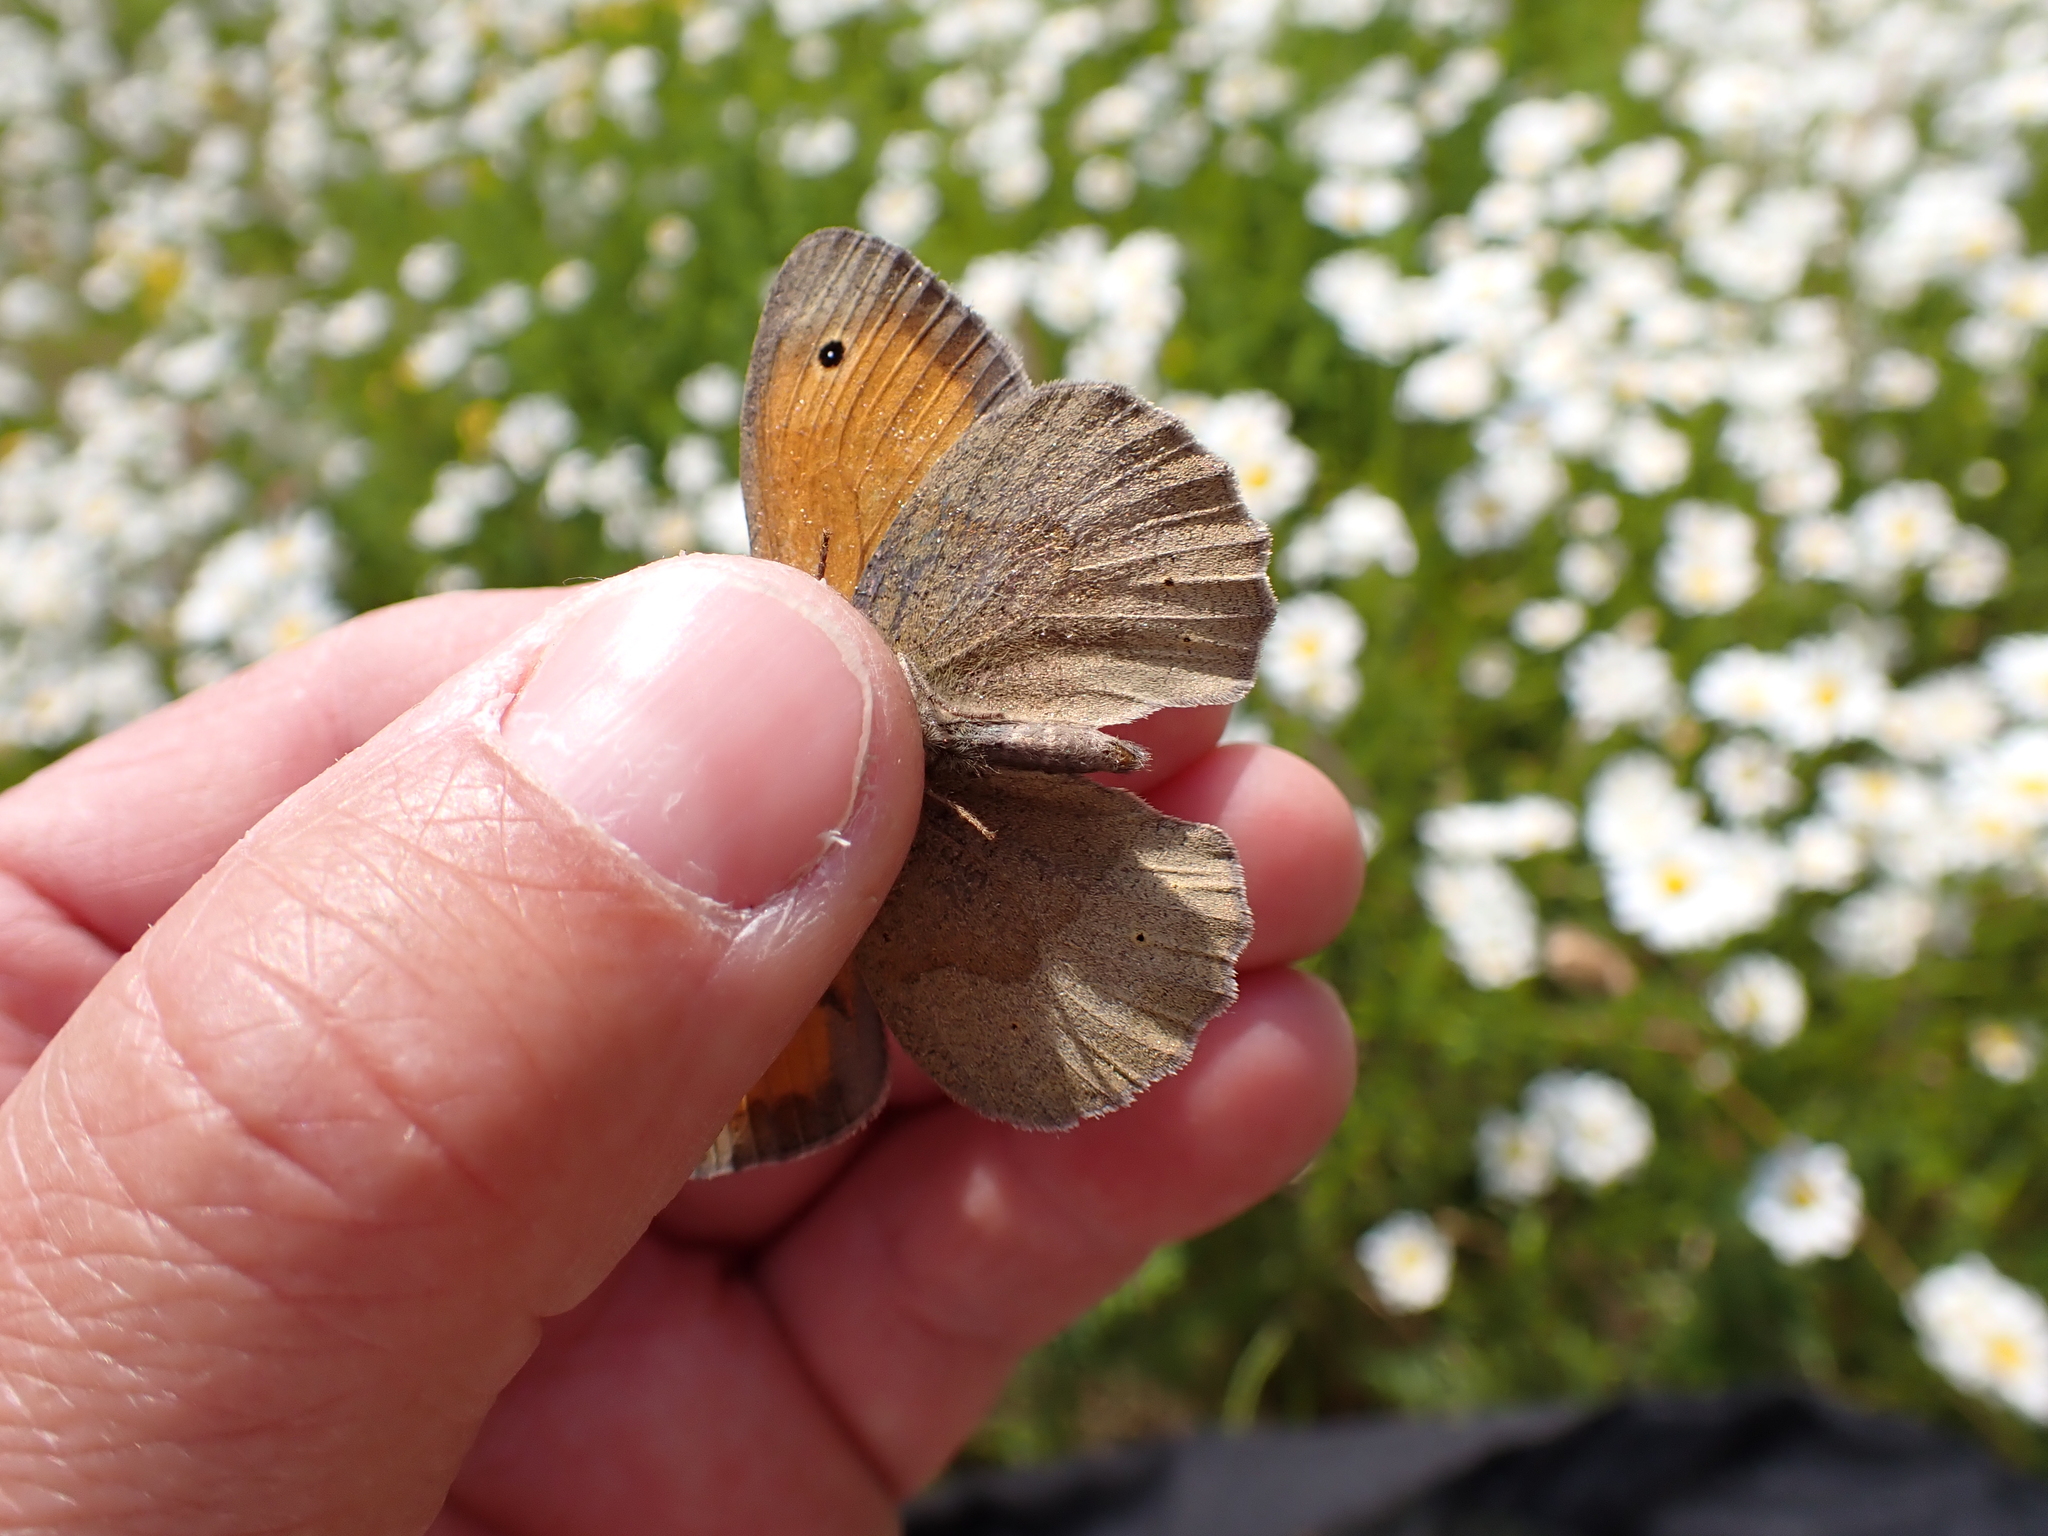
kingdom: Animalia
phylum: Arthropoda
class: Insecta
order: Lepidoptera
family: Nymphalidae
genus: Maniola
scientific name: Maniola jurtina
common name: Meadow brown
